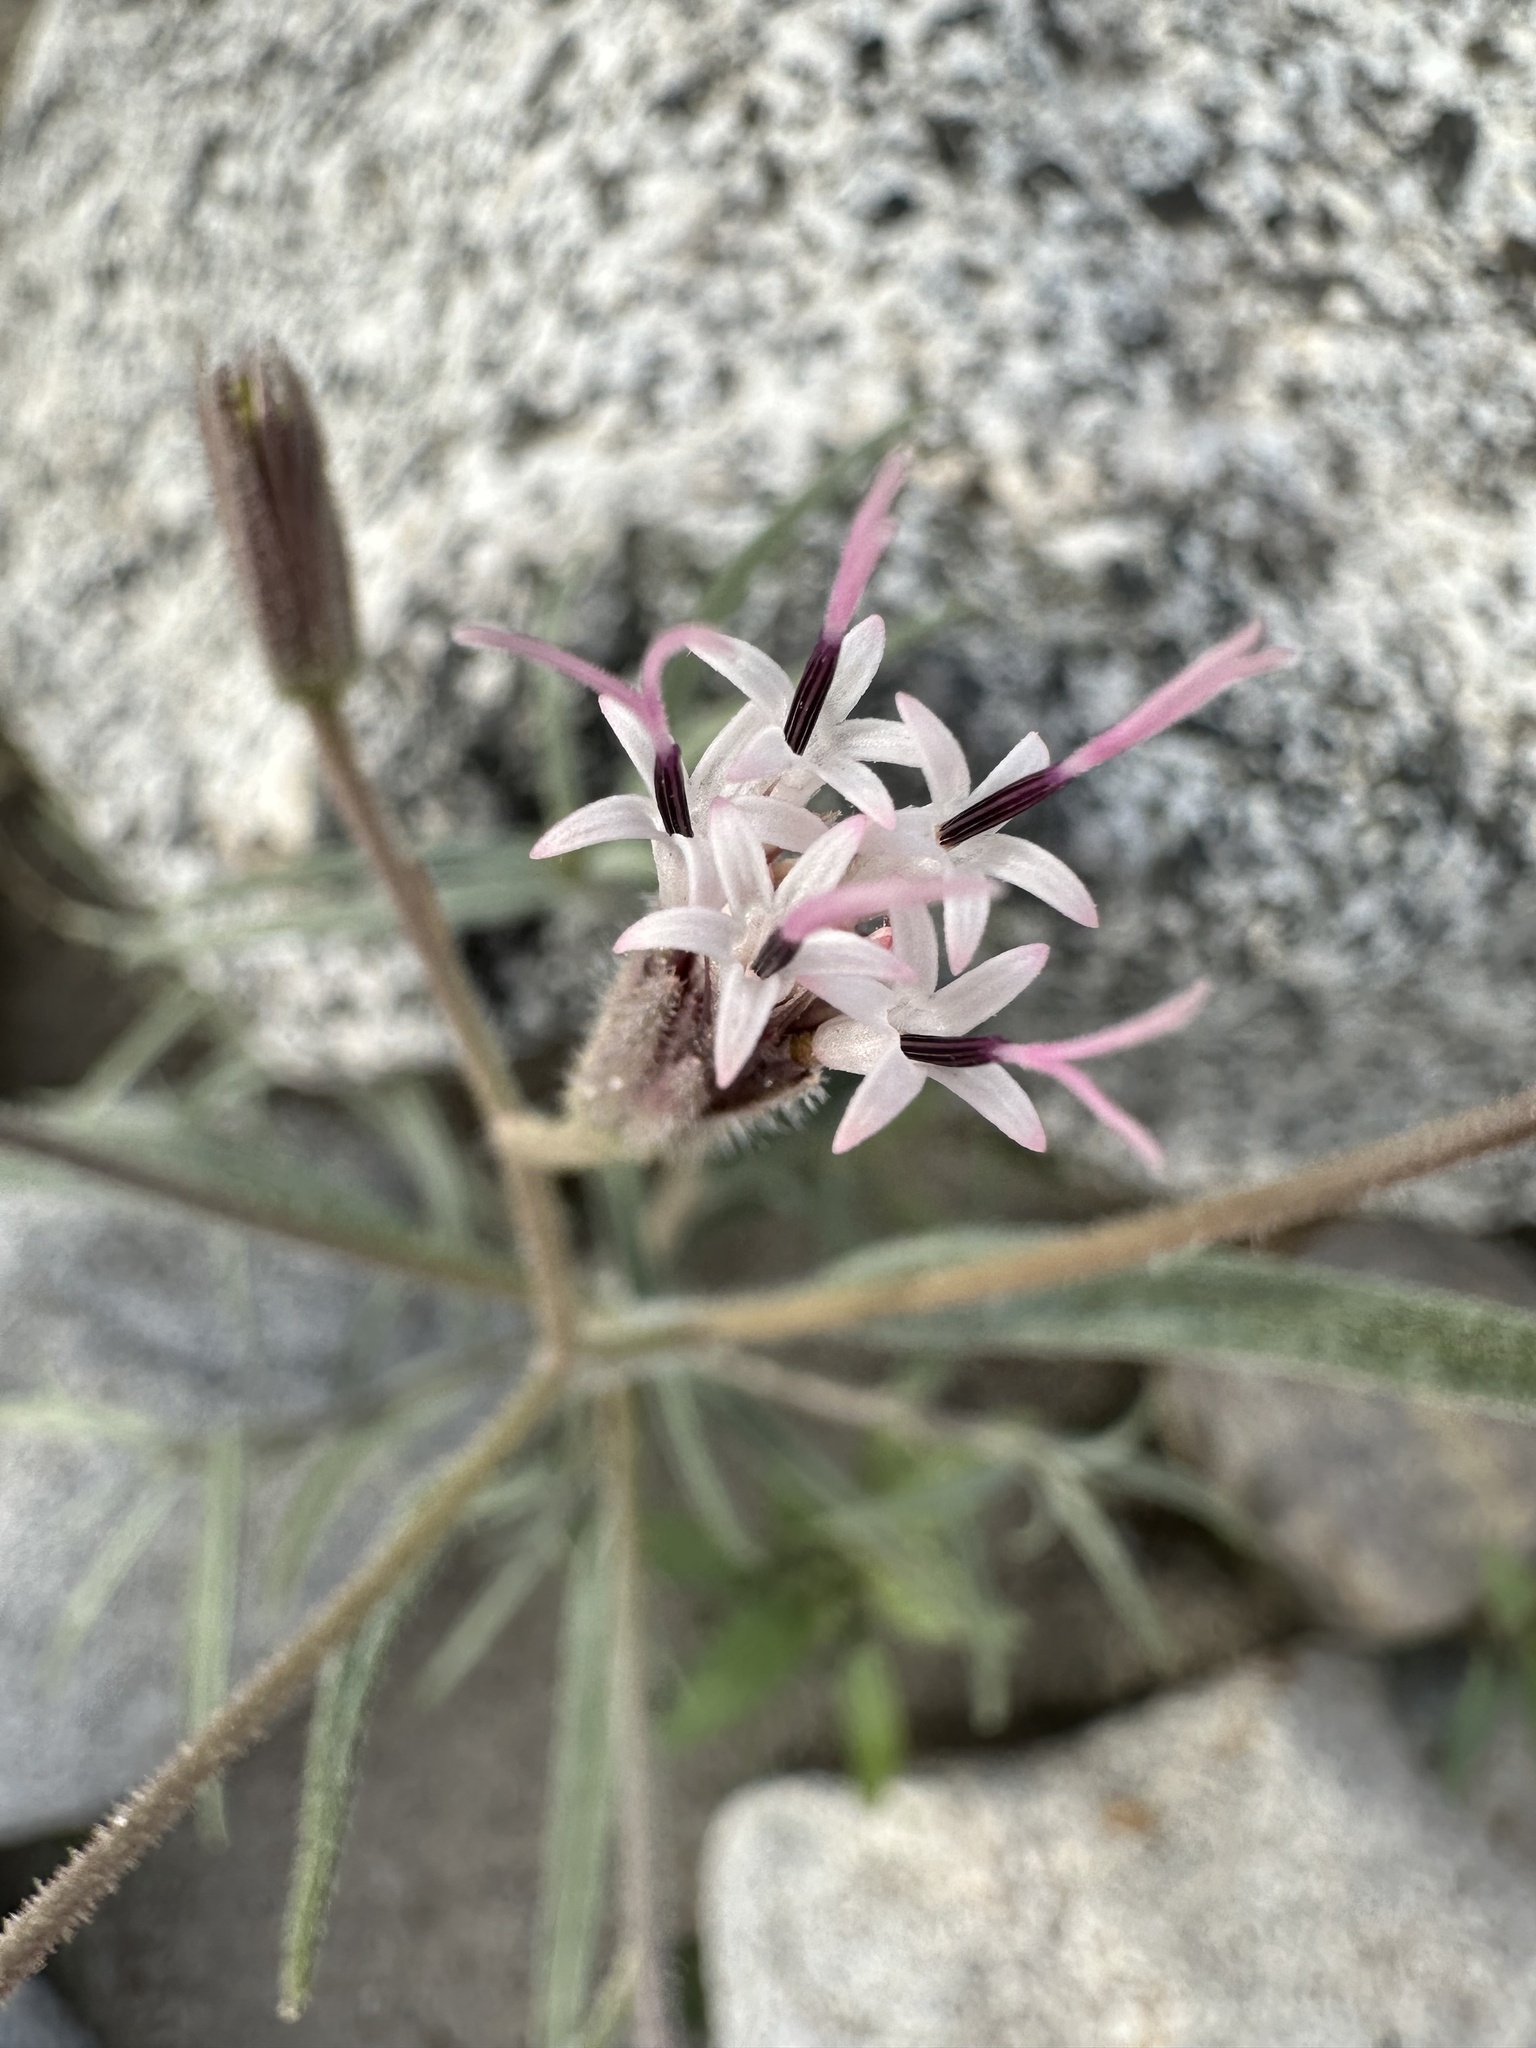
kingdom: Plantae
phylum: Tracheophyta
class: Magnoliopsida
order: Asterales
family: Asteraceae
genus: Palafoxia
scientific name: Palafoxia arida
